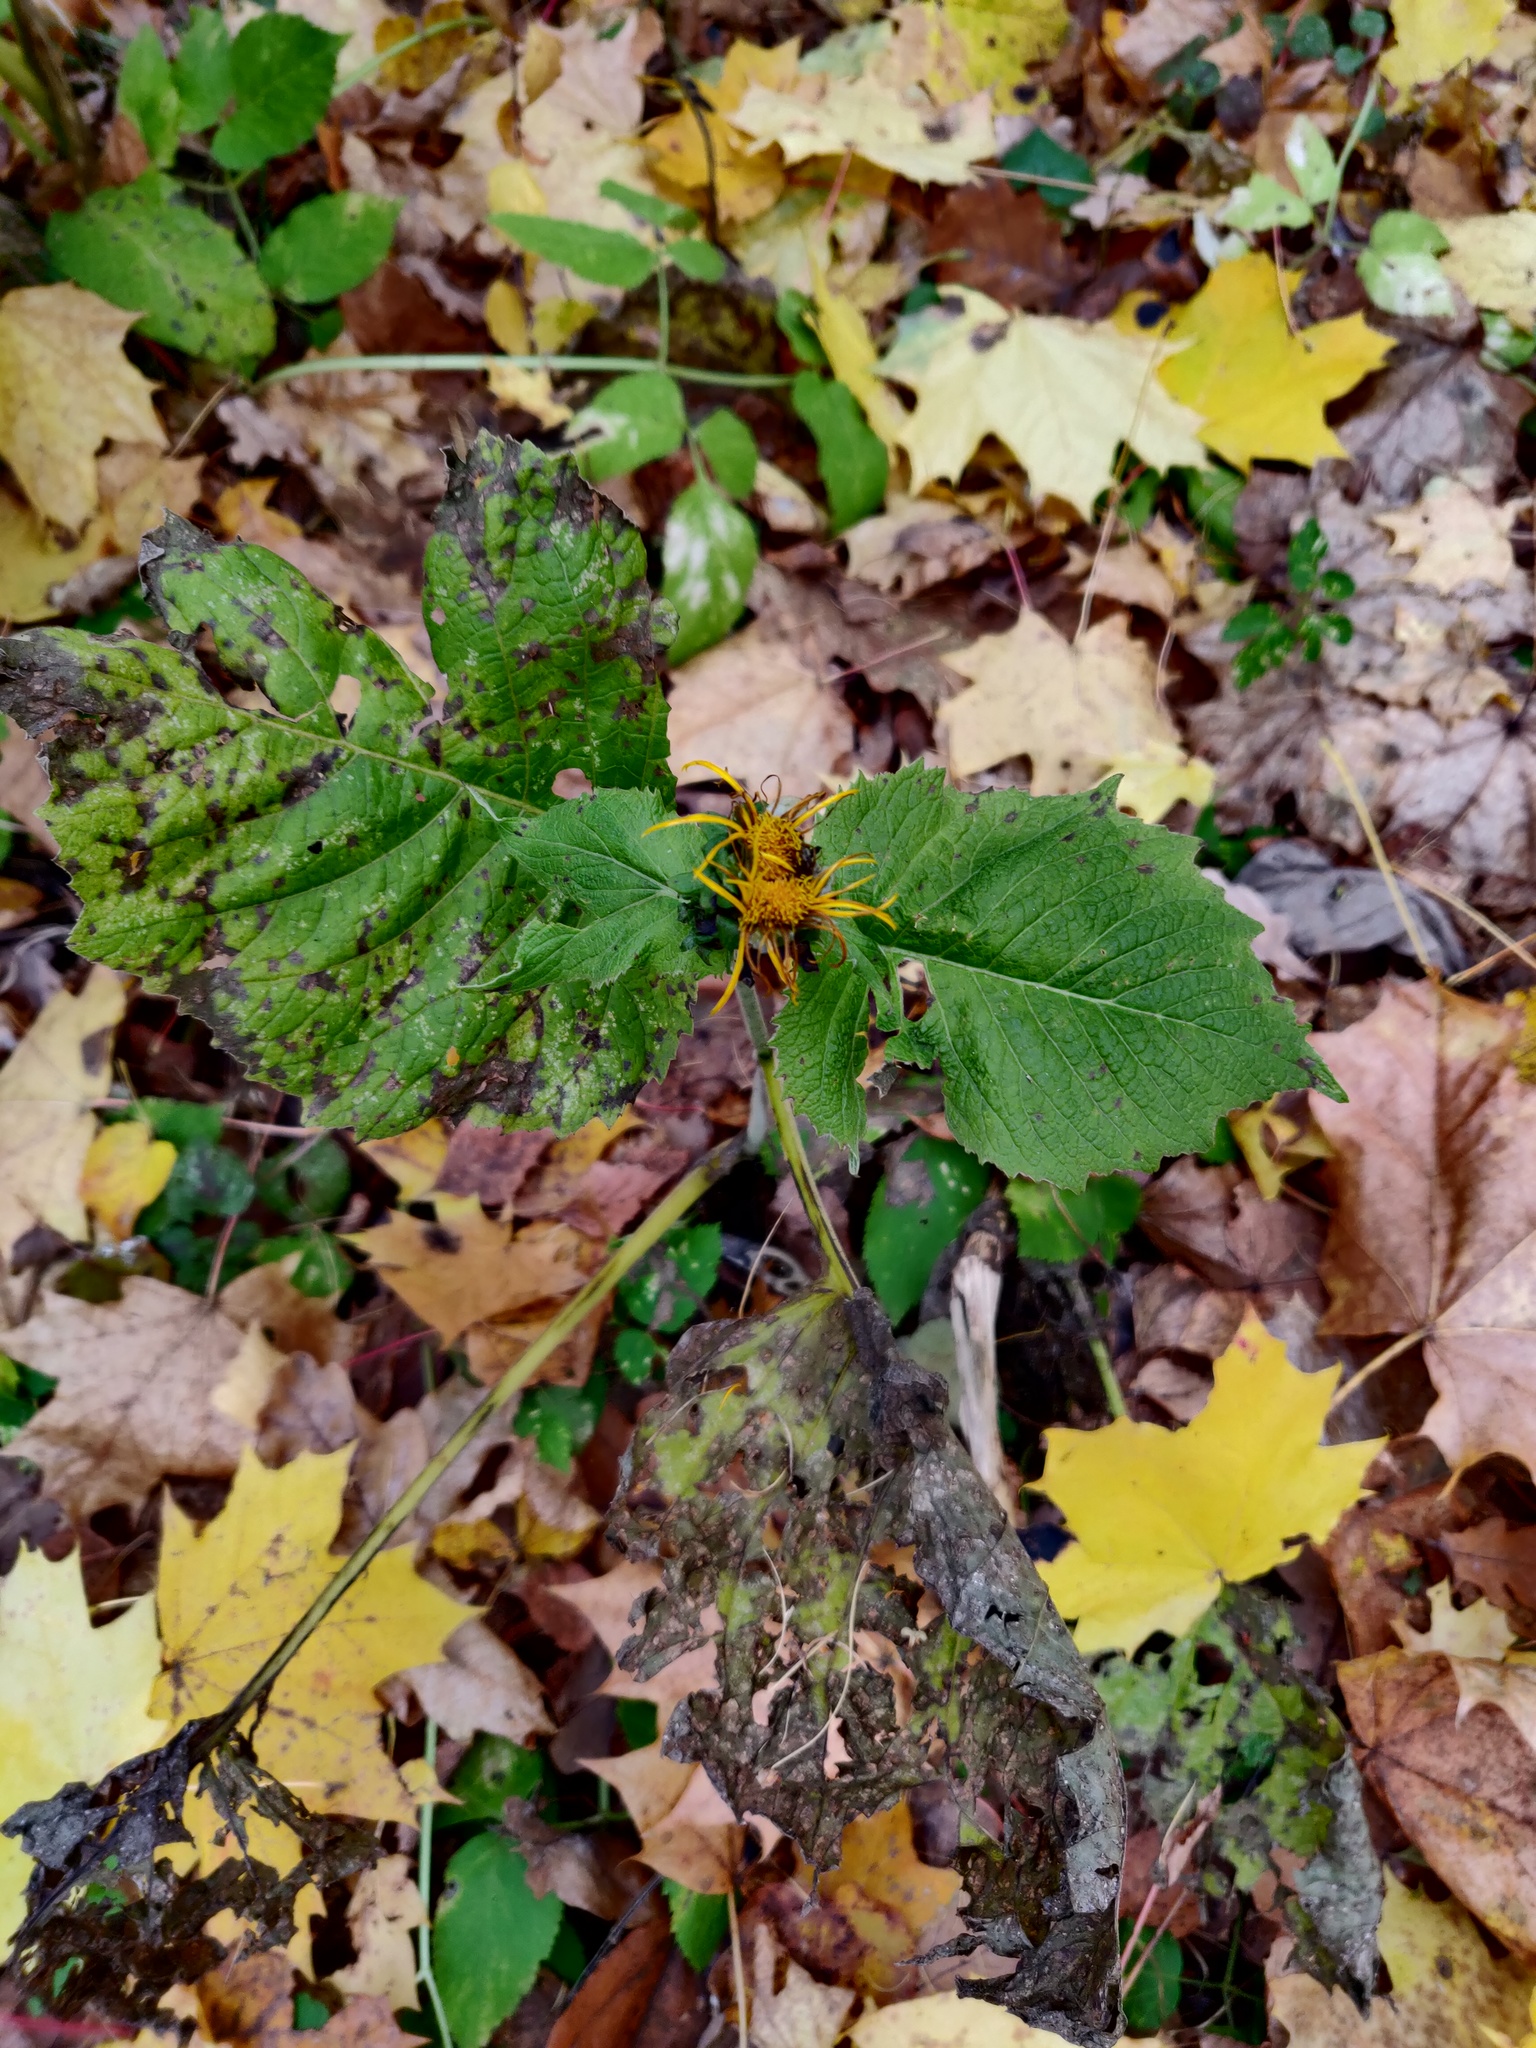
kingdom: Plantae
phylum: Tracheophyta
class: Magnoliopsida
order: Asterales
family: Asteraceae
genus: Telekia
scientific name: Telekia speciosa
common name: Yellow oxeye
